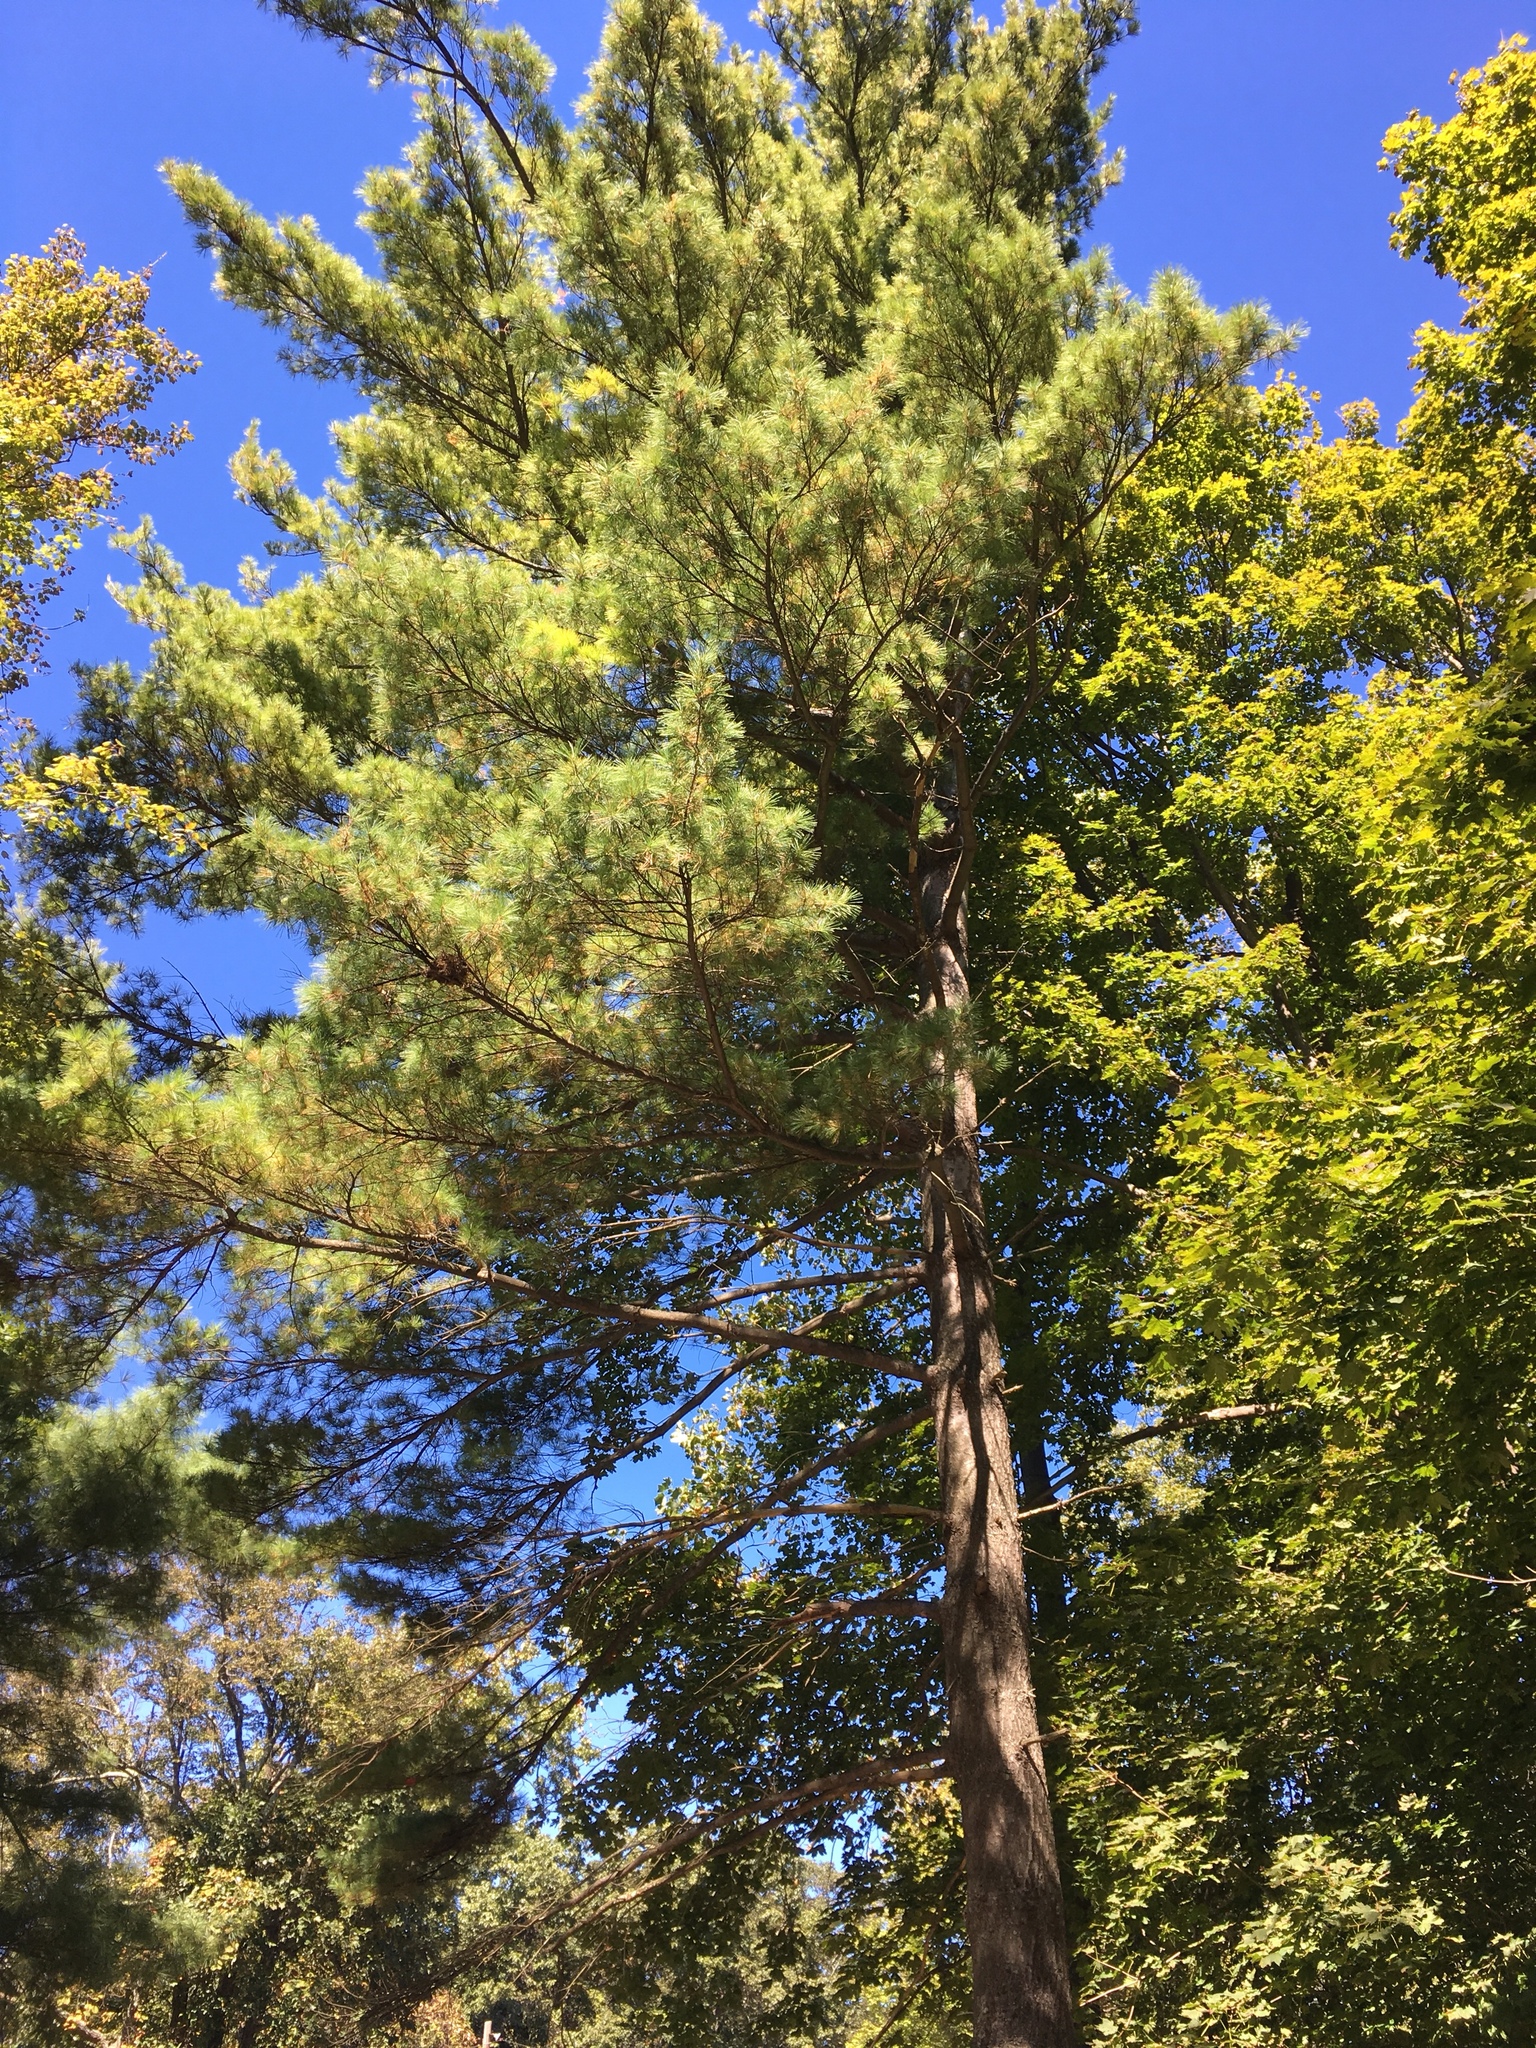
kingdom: Plantae
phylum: Tracheophyta
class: Pinopsida
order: Pinales
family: Pinaceae
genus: Pinus
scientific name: Pinus strobus
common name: Weymouth pine
